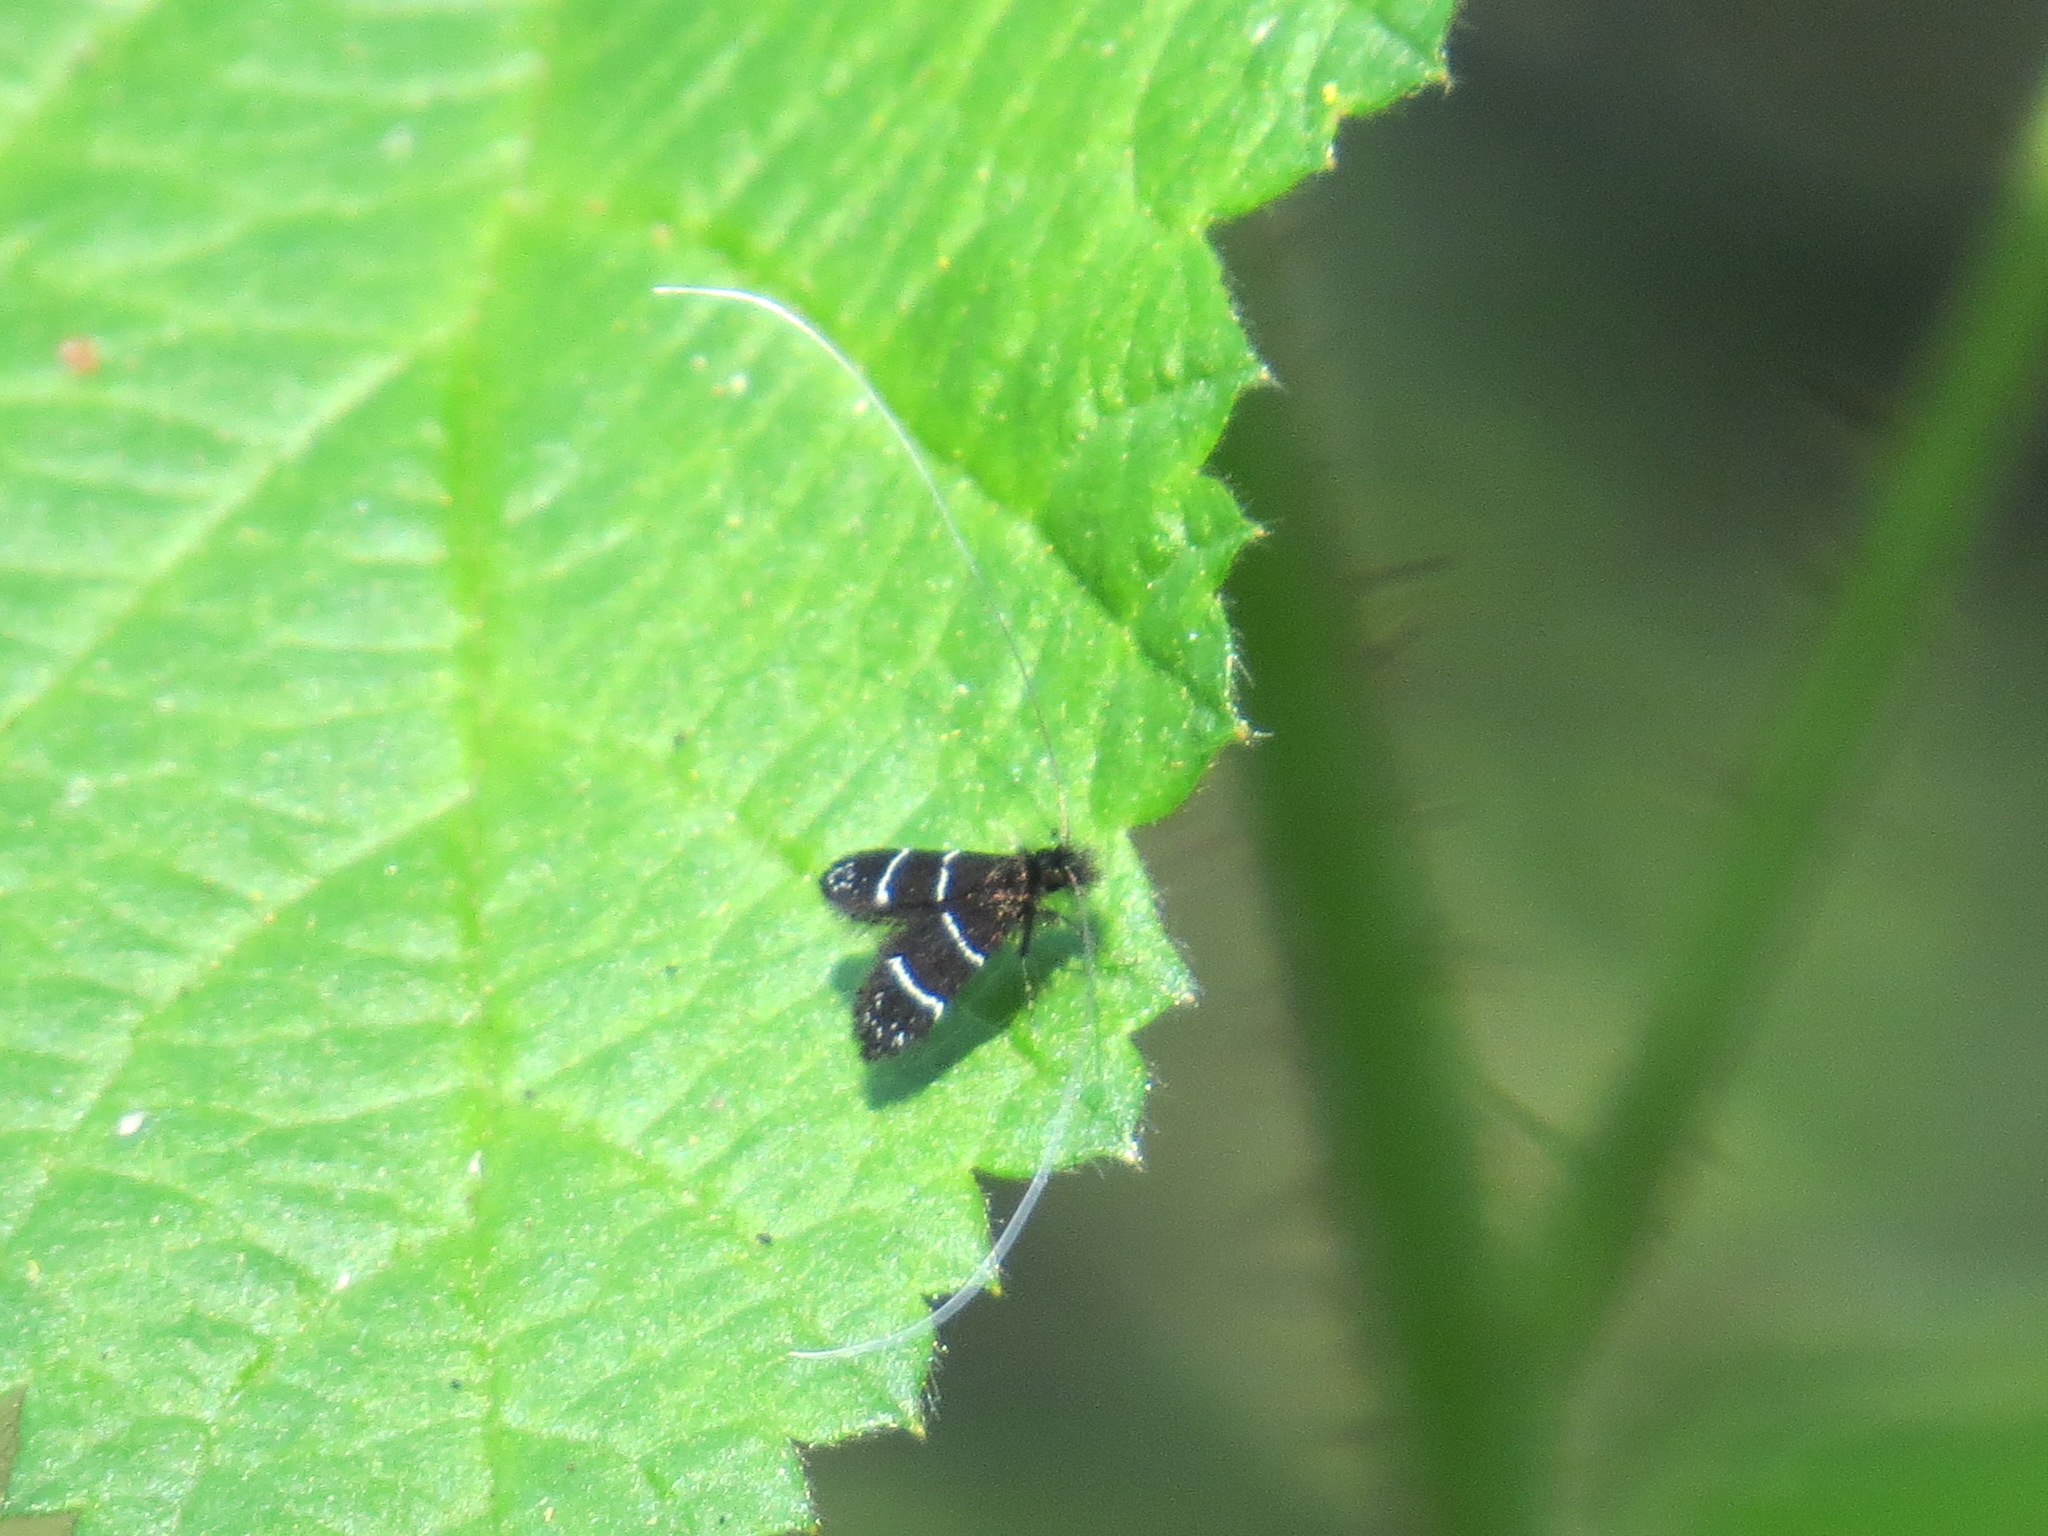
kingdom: Animalia
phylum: Arthropoda
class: Insecta
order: Lepidoptera
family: Adelidae
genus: Adela
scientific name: Adela septentrionella
